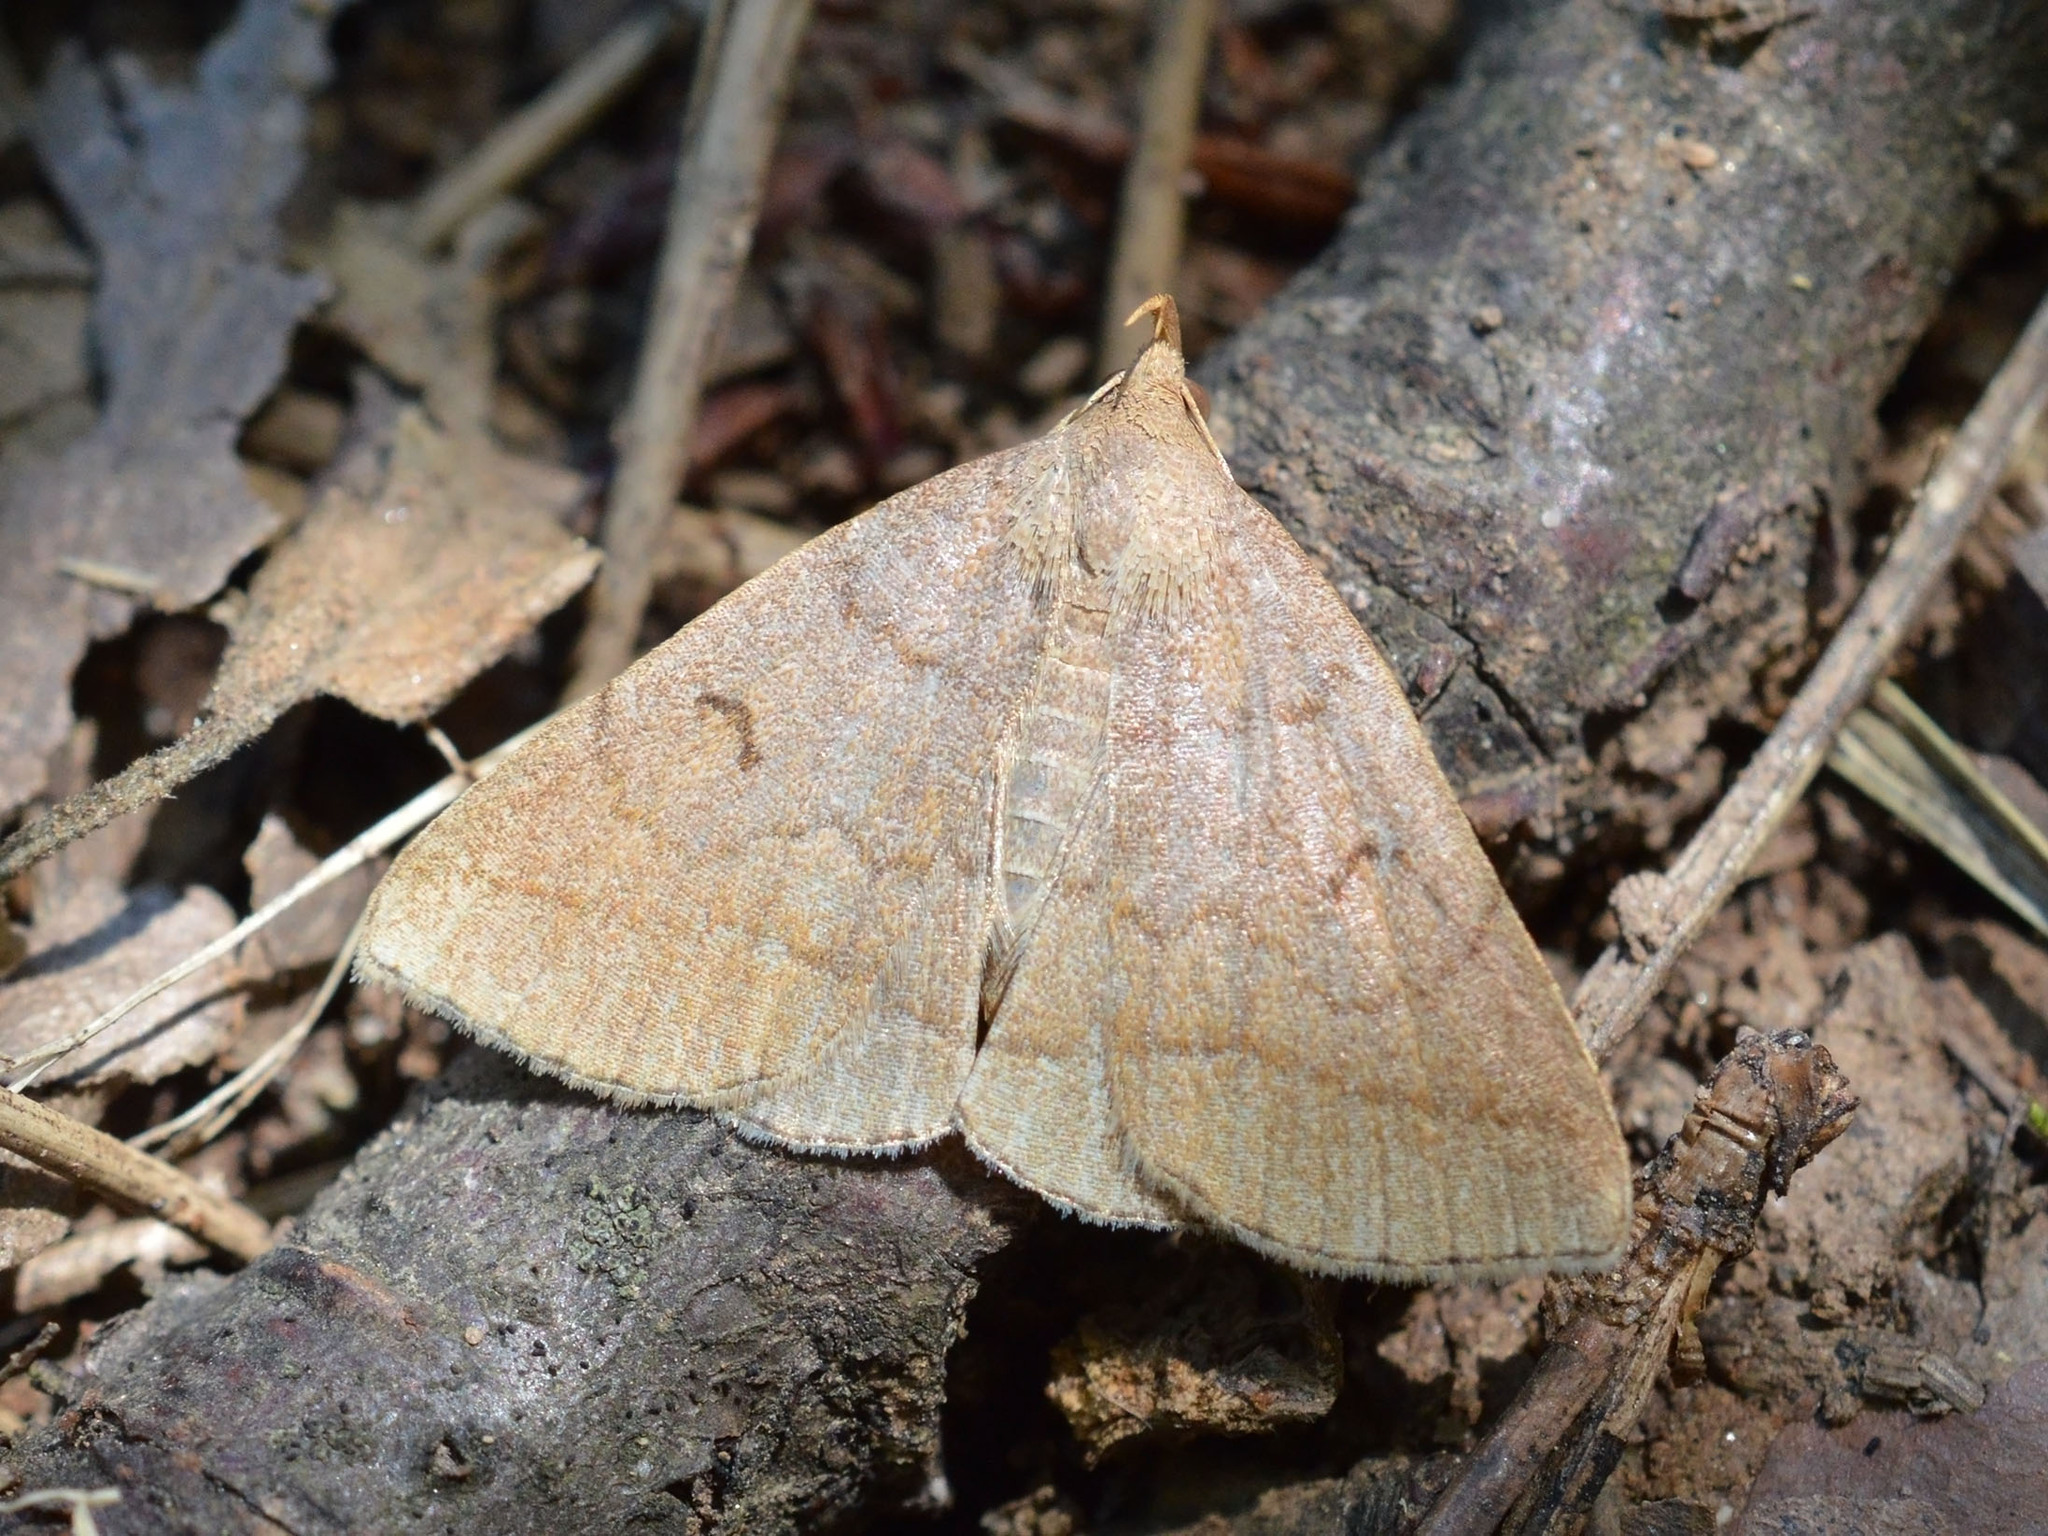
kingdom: Animalia
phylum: Arthropoda
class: Insecta
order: Lepidoptera
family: Erebidae
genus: Zanclognatha
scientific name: Zanclognatha lunalis
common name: Jubilee fan-foot
